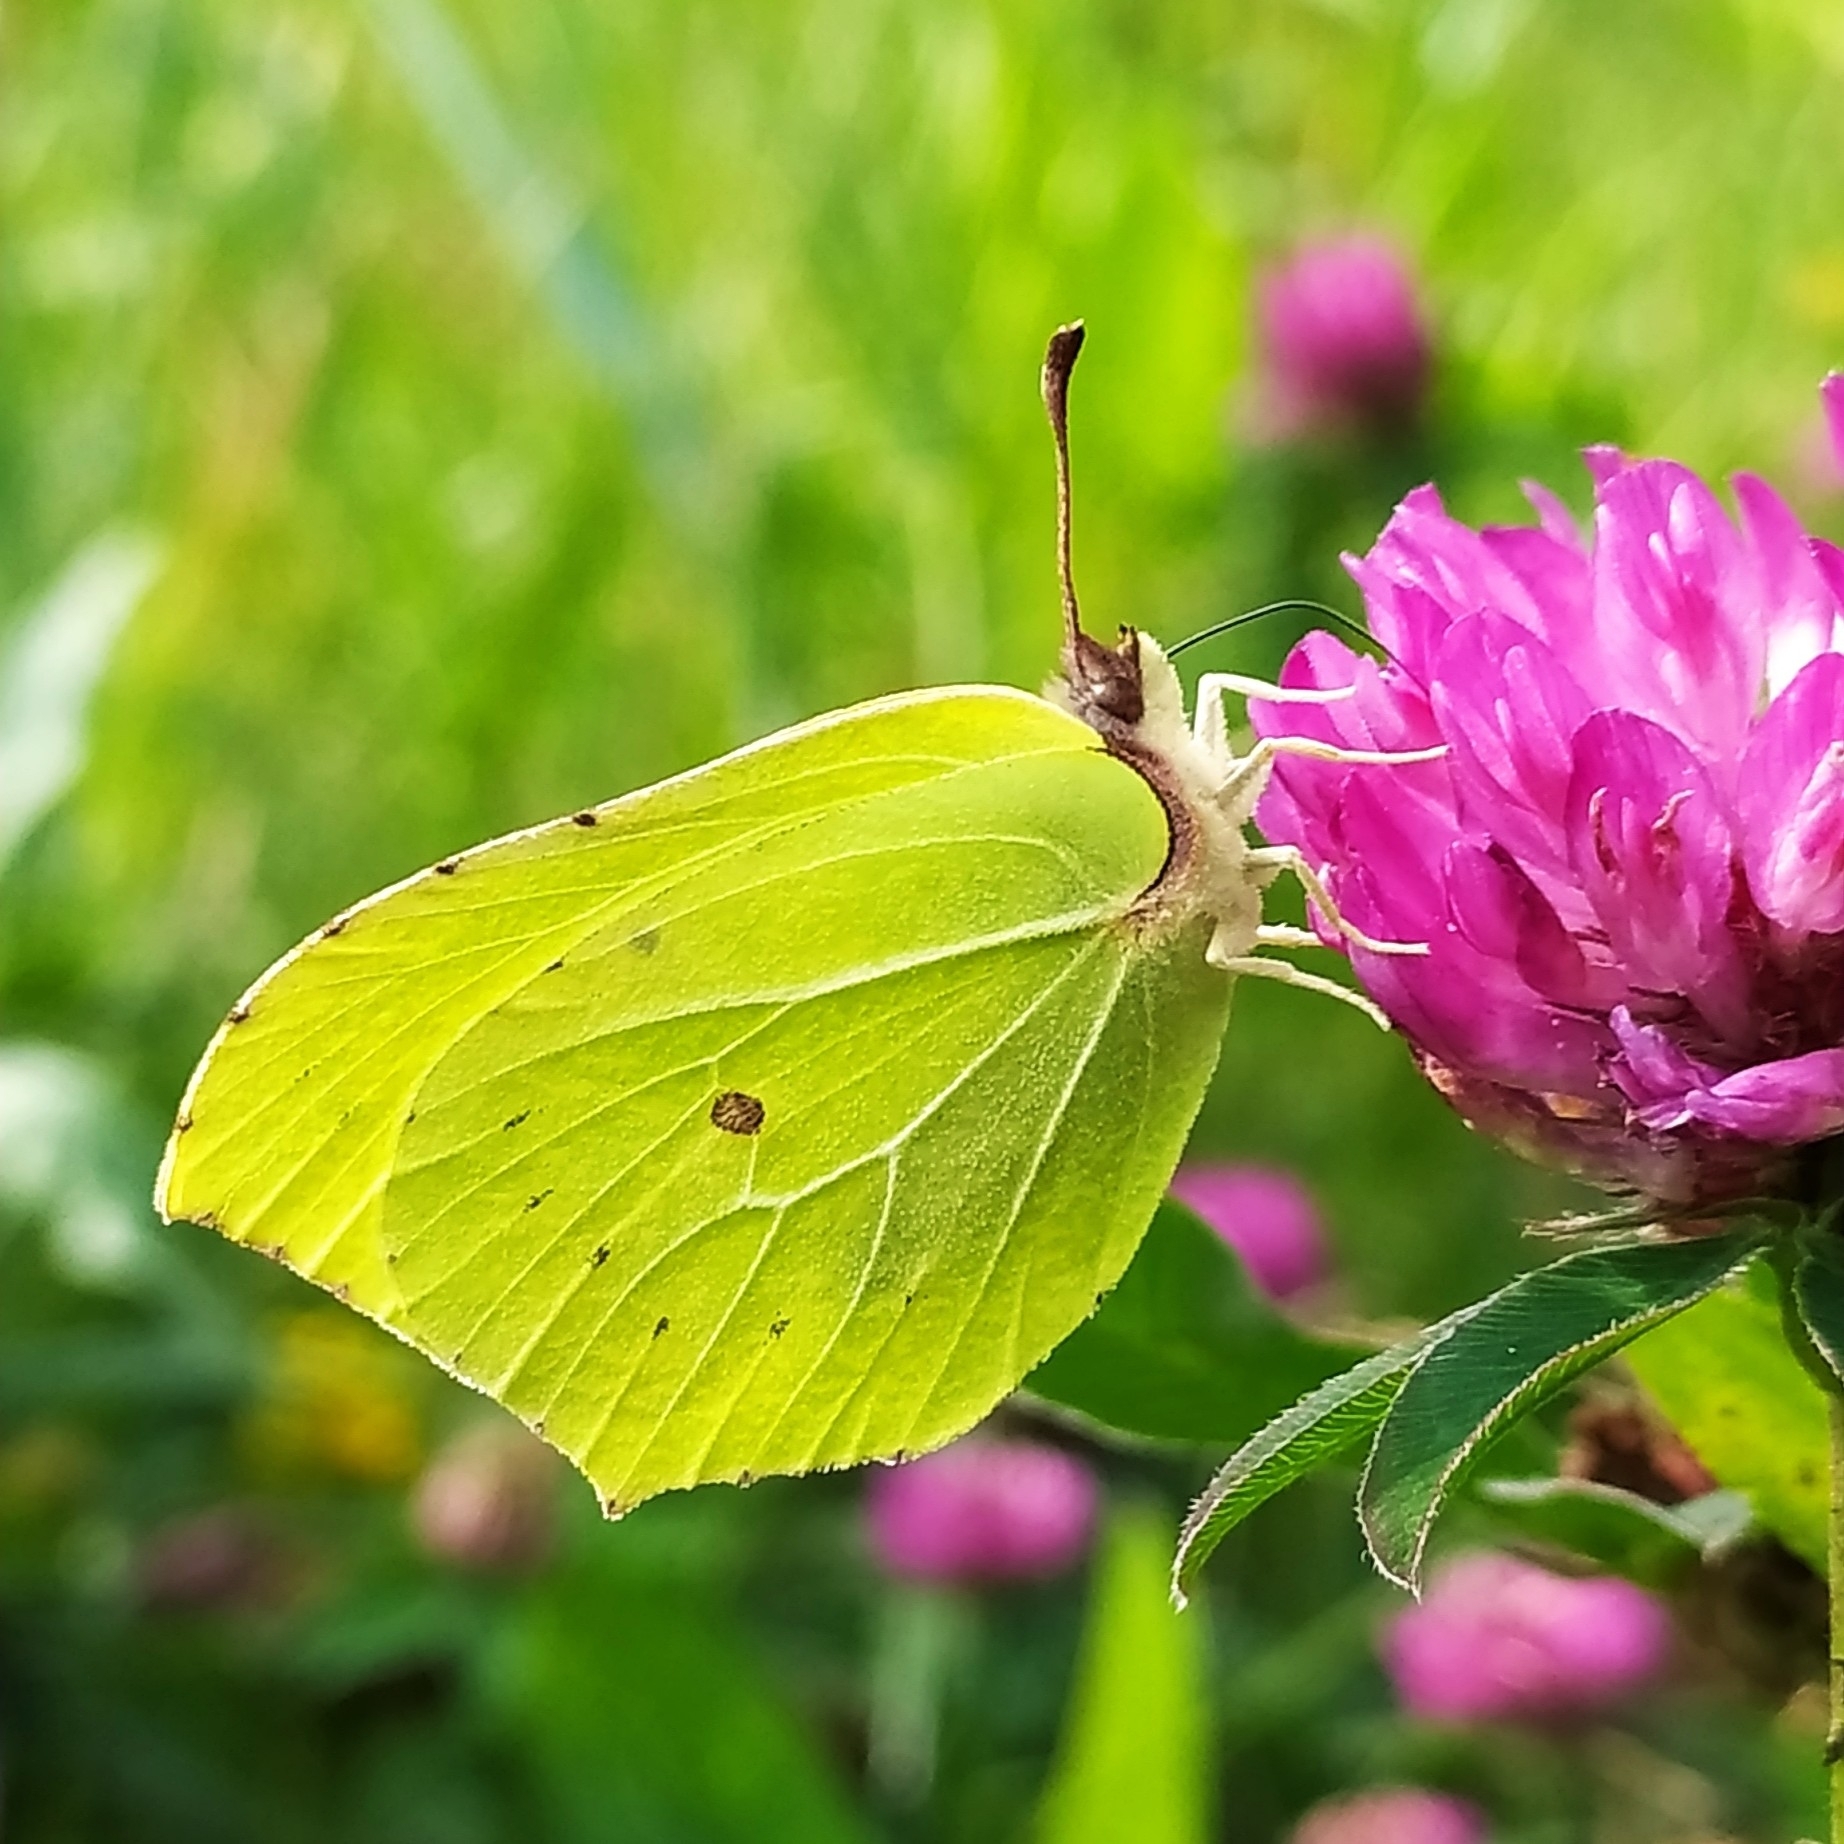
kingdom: Animalia
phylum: Arthropoda
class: Insecta
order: Lepidoptera
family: Pieridae
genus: Gonepteryx
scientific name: Gonepteryx rhamni
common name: Brimstone
